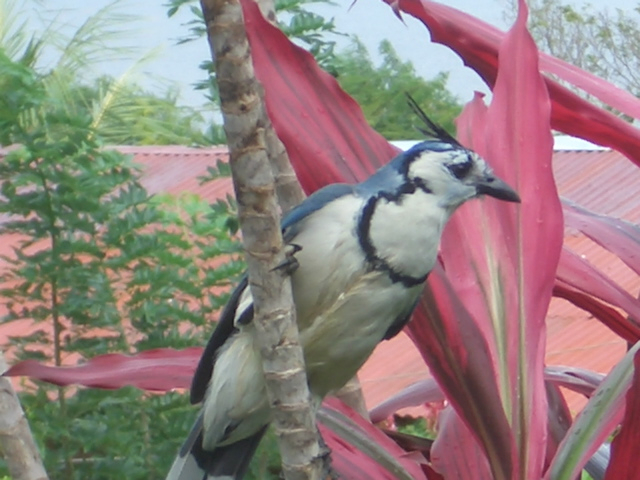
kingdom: Animalia
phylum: Chordata
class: Aves
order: Passeriformes
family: Corvidae
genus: Calocitta
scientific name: Calocitta formosa
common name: White-throated magpie-jay
